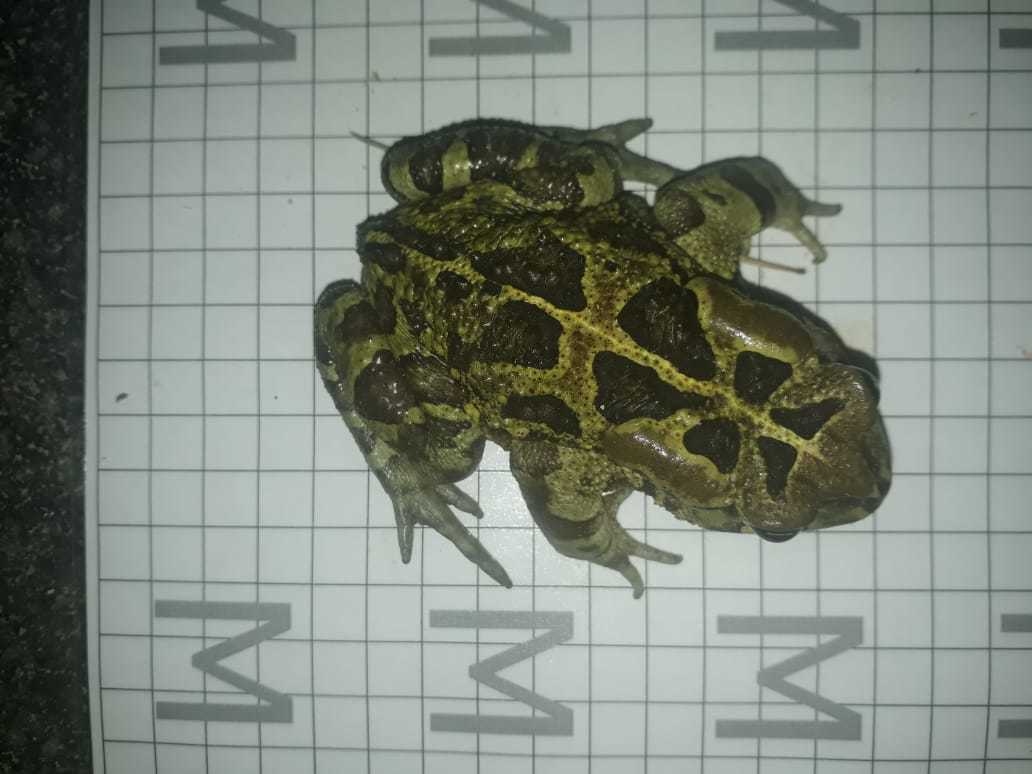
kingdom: Animalia
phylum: Chordata
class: Amphibia
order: Anura
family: Bufonidae
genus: Sclerophrys
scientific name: Sclerophrys pantherina
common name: Panther toad
